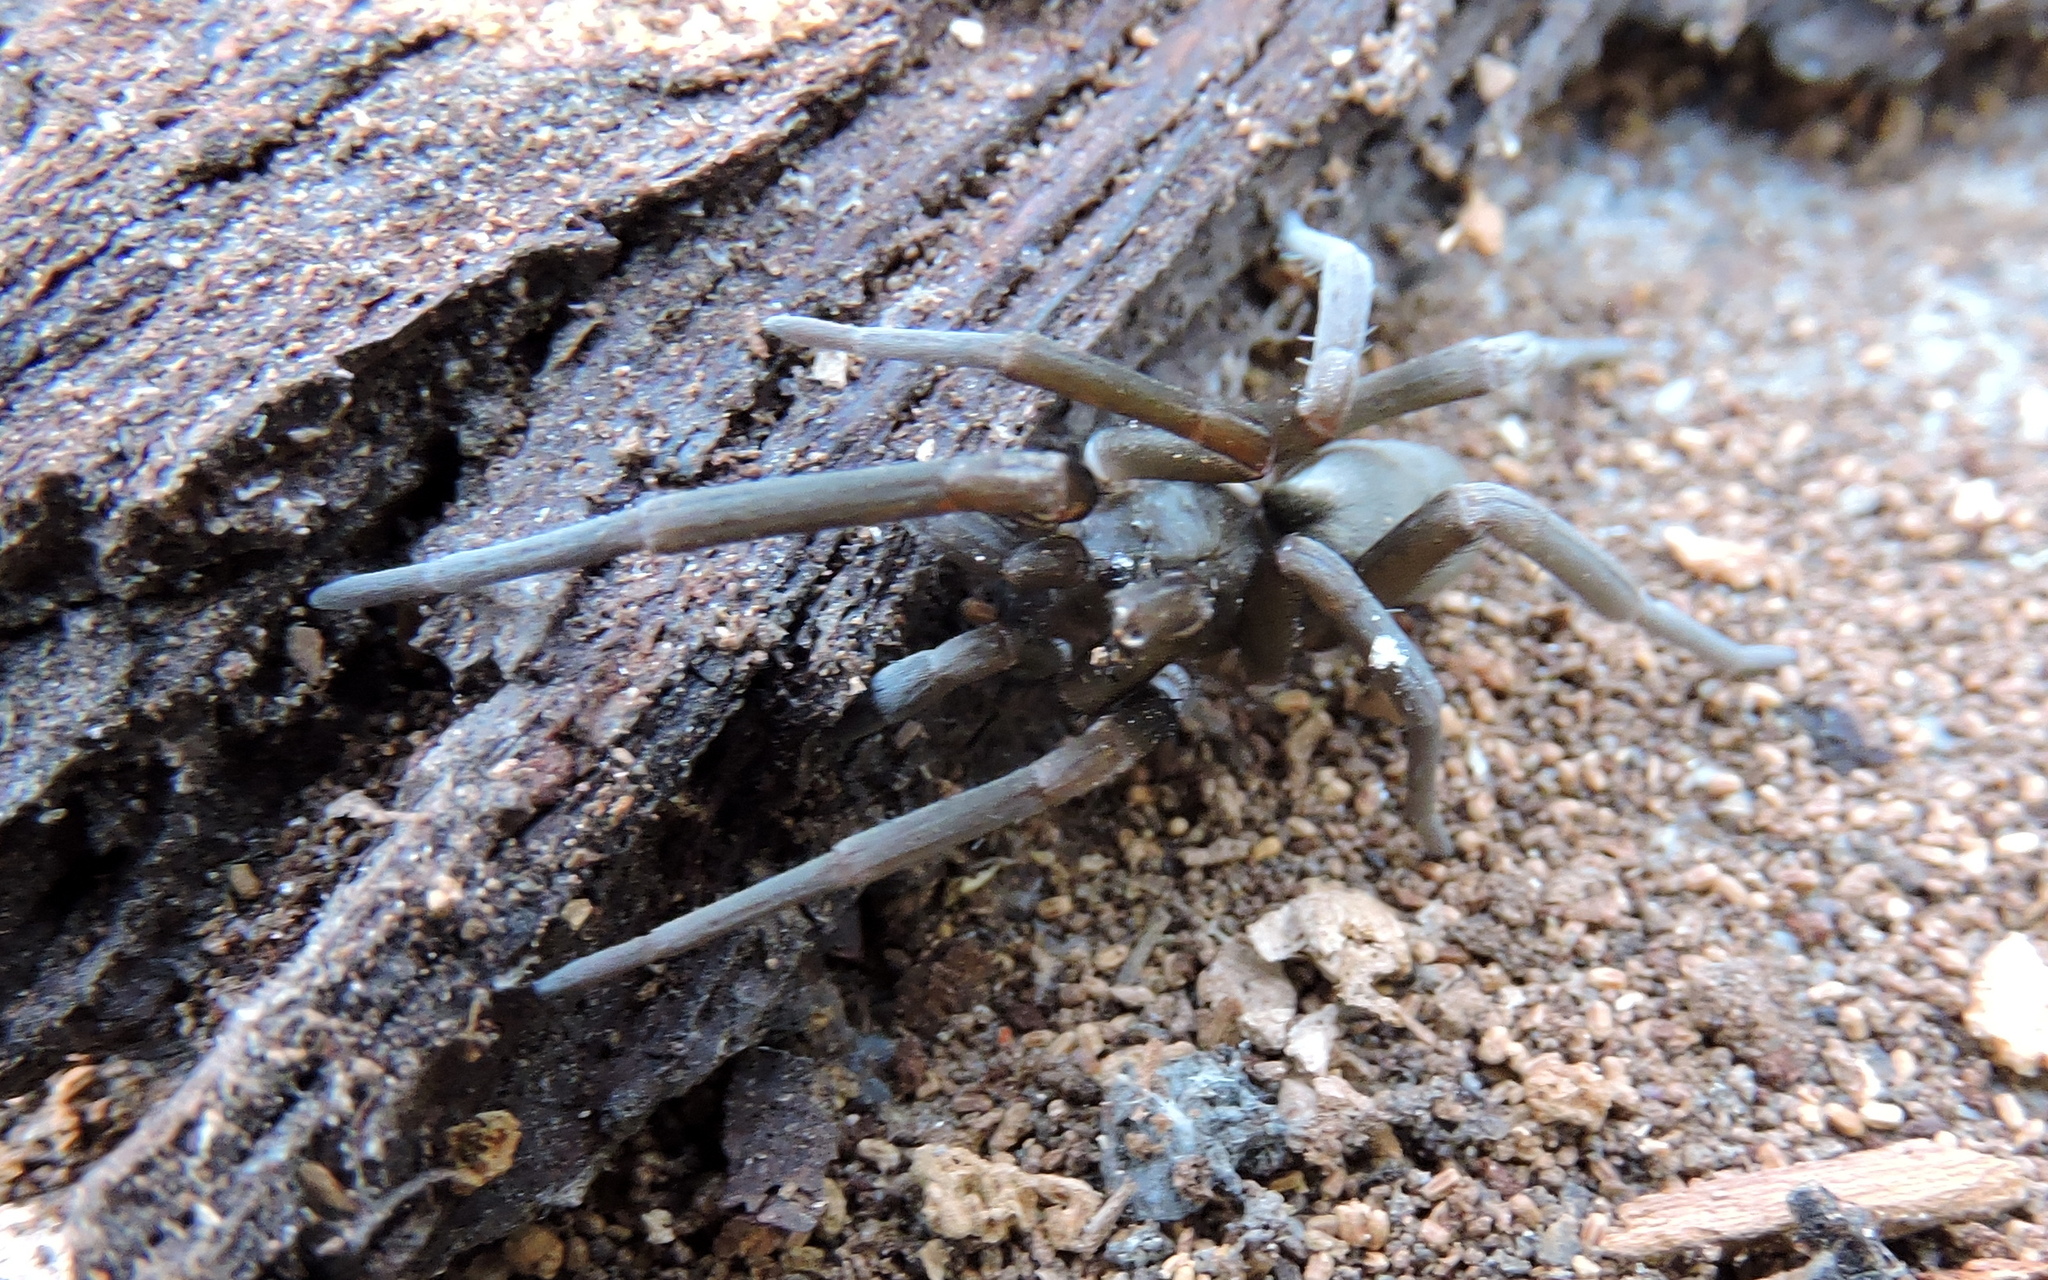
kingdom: Animalia
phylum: Arthropoda
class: Arachnida
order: Araneae
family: Filistatidae
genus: Kukulcania
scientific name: Kukulcania hibernalis
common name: Crevice weaver
